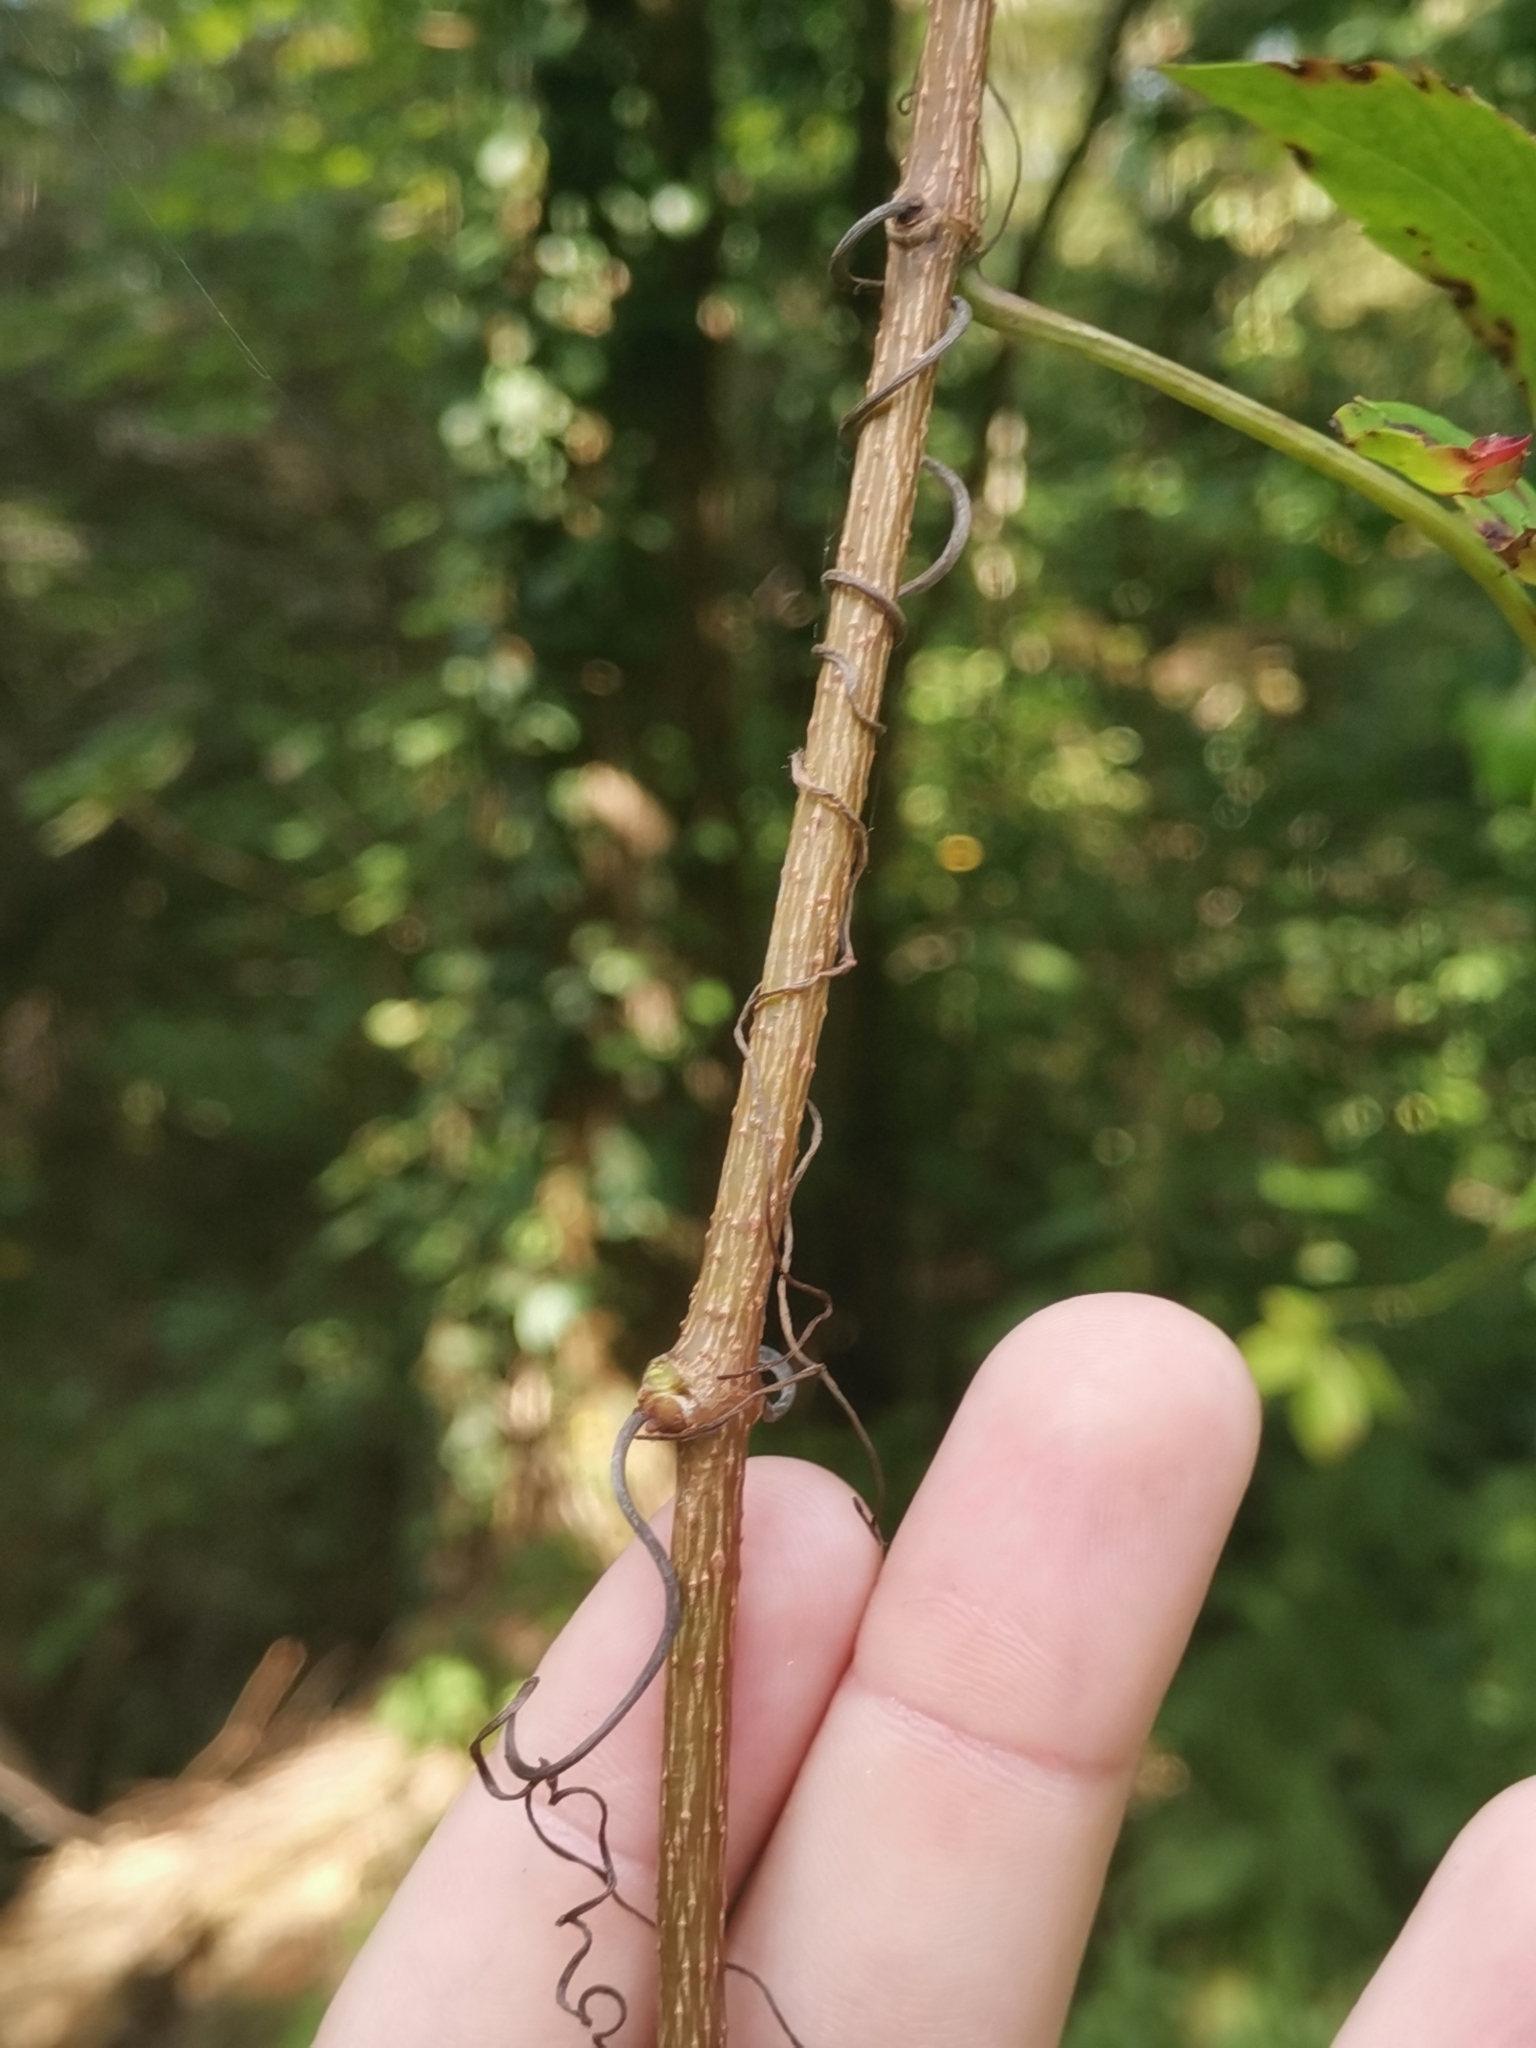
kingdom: Plantae
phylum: Tracheophyta
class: Magnoliopsida
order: Vitales
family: Vitaceae
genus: Parthenocissus
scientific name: Parthenocissus inserta
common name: False virginia-creeper
